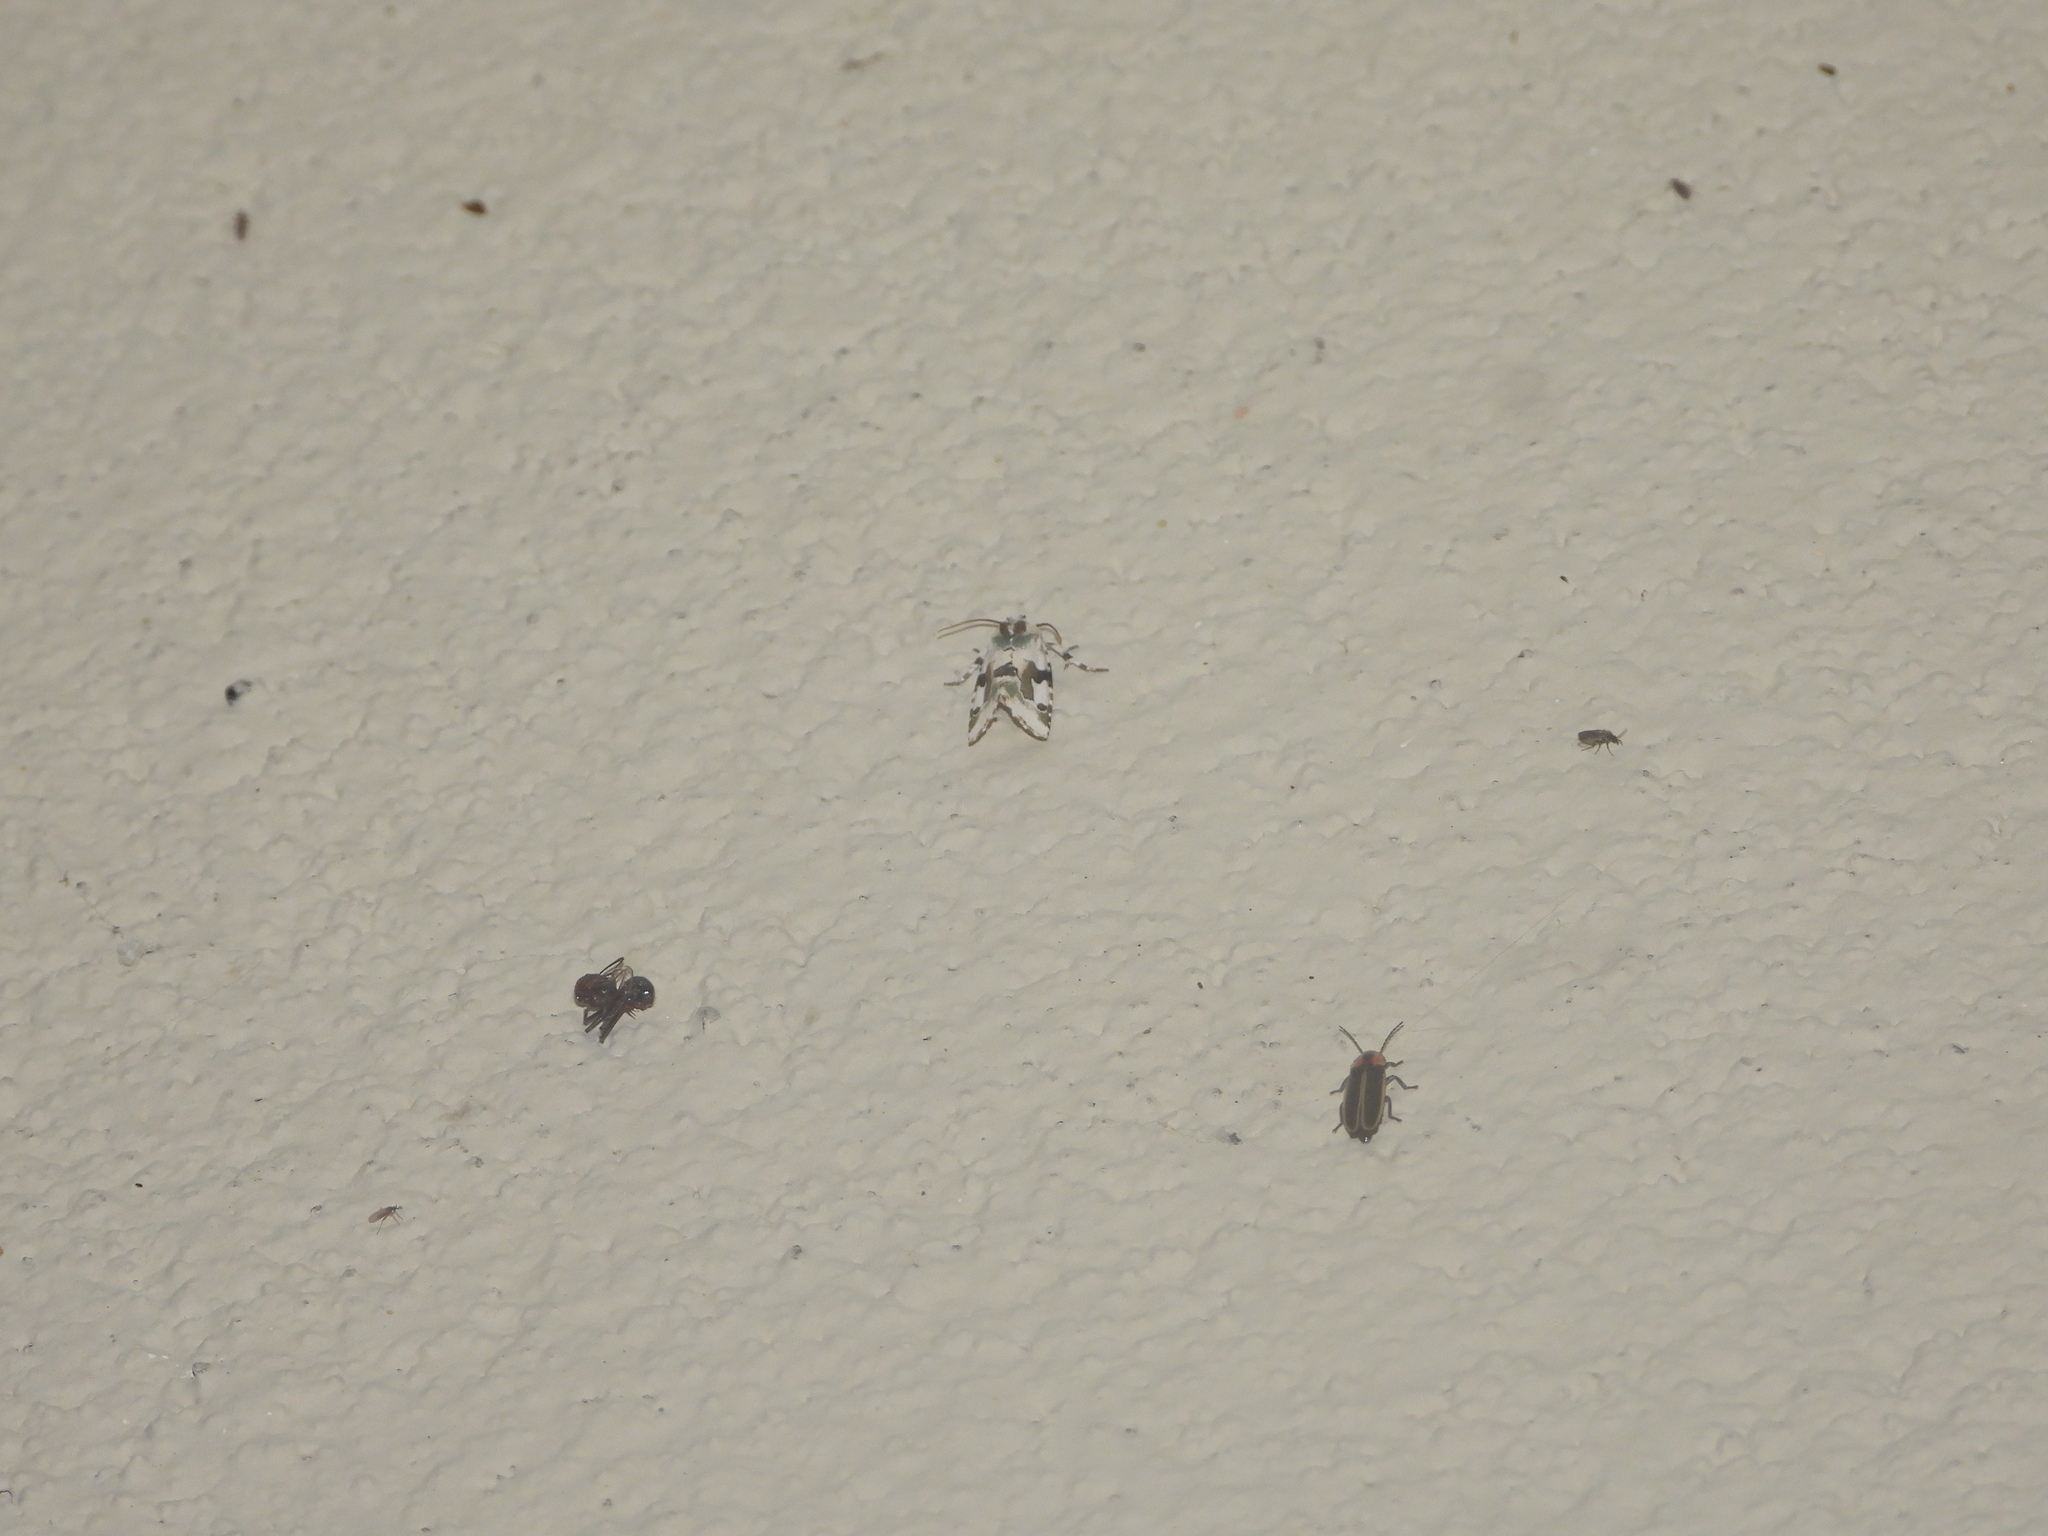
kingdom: Animalia
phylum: Arthropoda
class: Insecta
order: Coleoptera
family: Lampyridae
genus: Photinus
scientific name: Photinus knulli
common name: Fall southwest firefly
